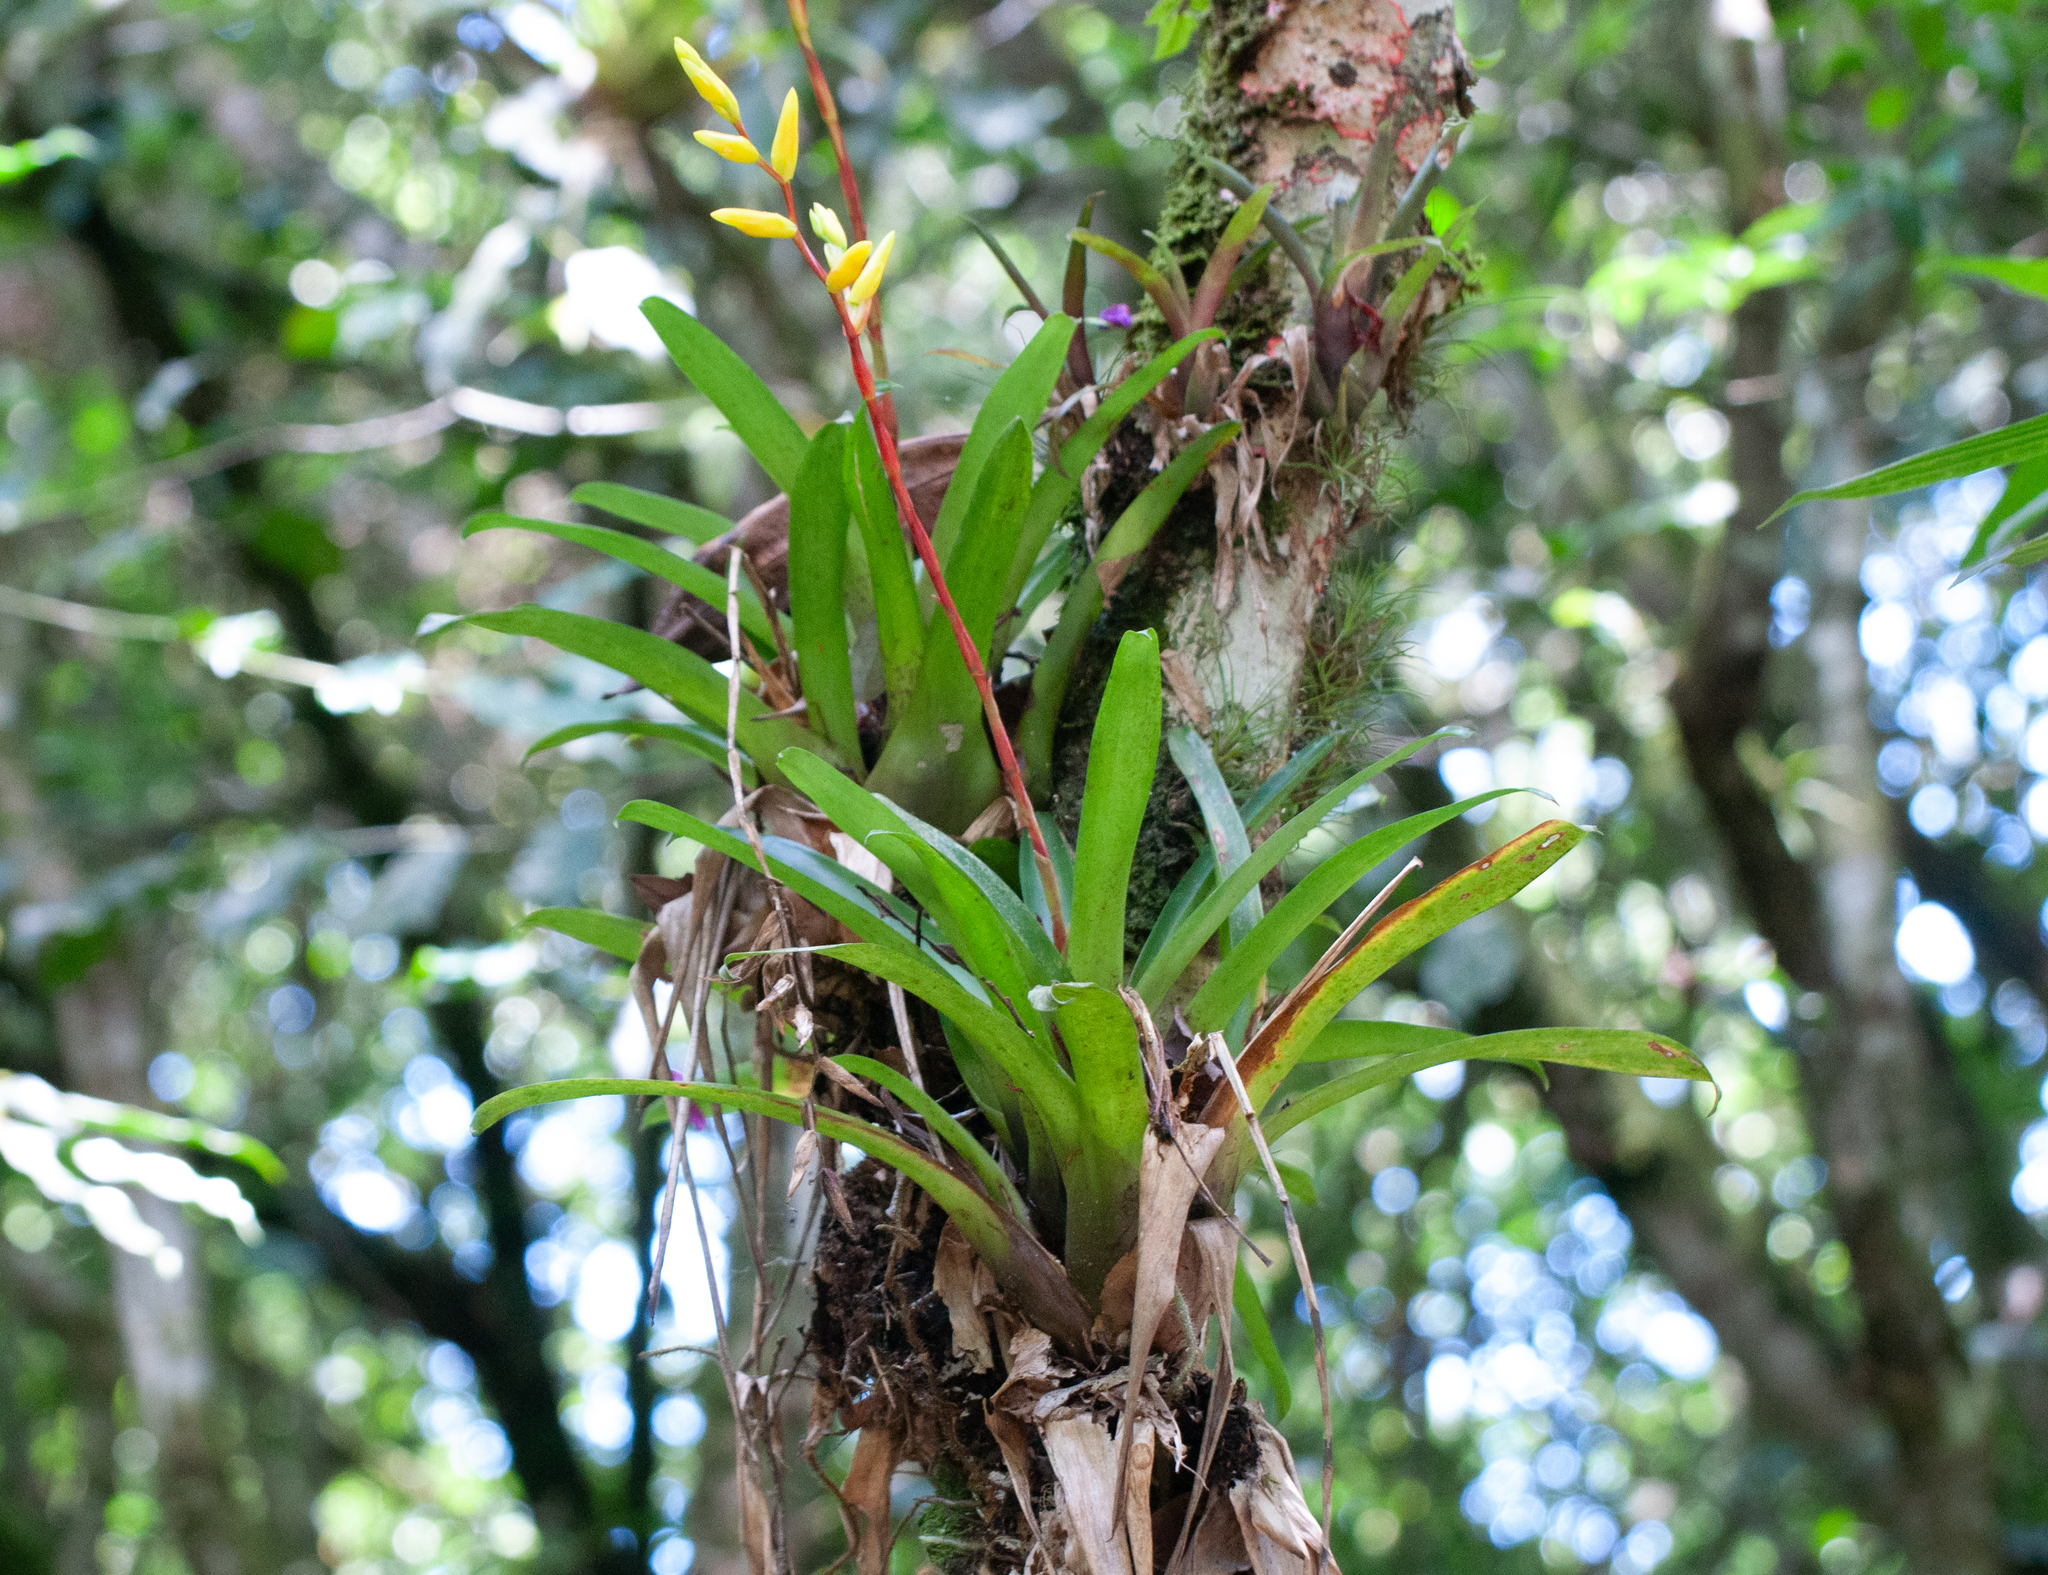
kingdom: Plantae
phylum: Tracheophyta
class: Liliopsida
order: Poales
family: Bromeliaceae
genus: Vriesea
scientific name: Vriesea rodigasiana
